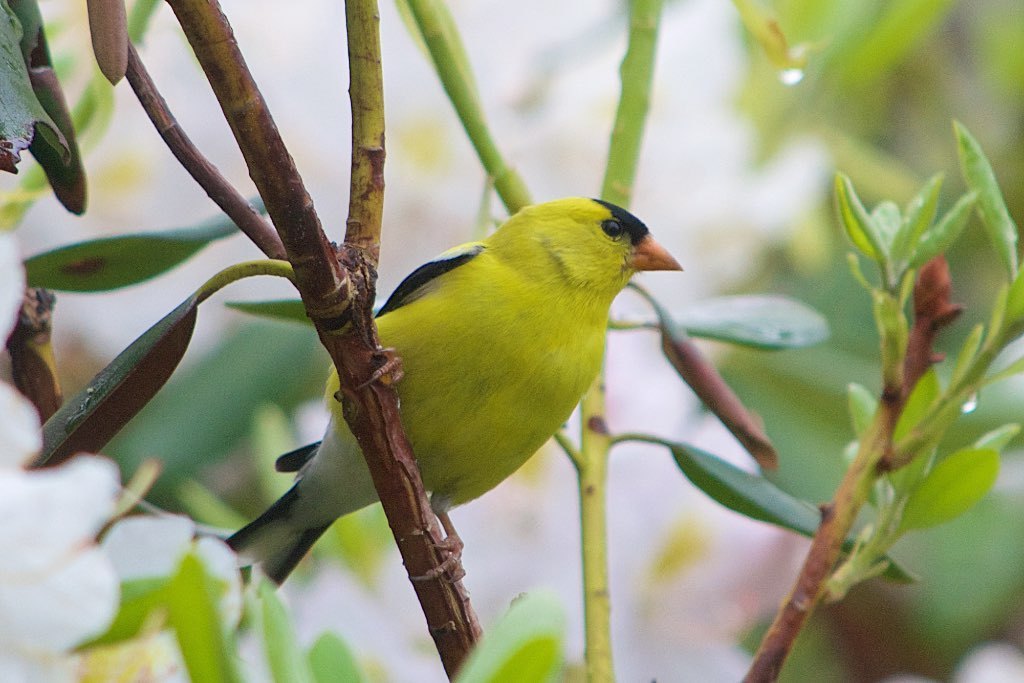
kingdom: Animalia
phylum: Chordata
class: Aves
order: Passeriformes
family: Fringillidae
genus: Spinus
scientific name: Spinus tristis
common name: American goldfinch
